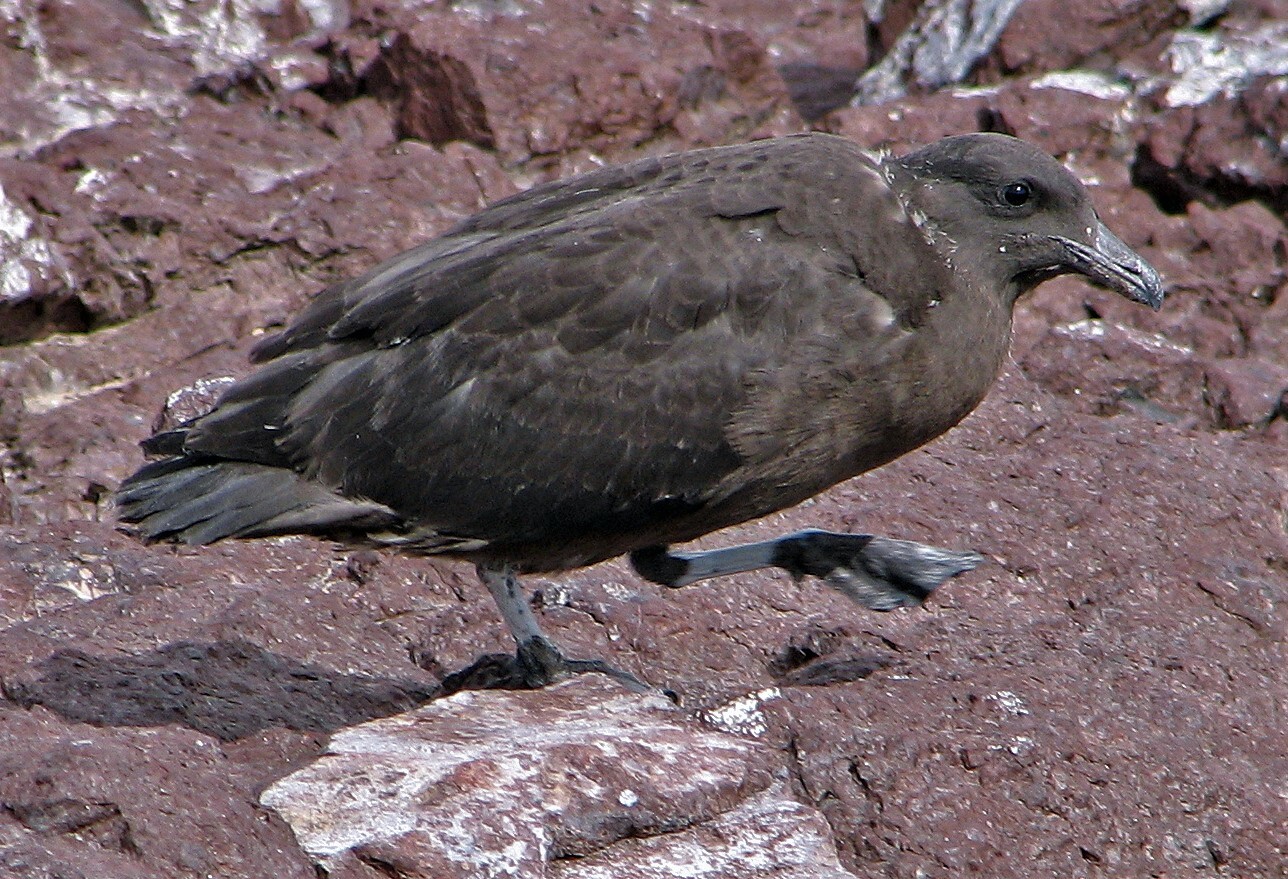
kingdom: Animalia
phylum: Chordata
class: Aves
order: Charadriiformes
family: Stercorariidae
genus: Stercorarius
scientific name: Stercorarius antarcticus
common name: Brown skua
